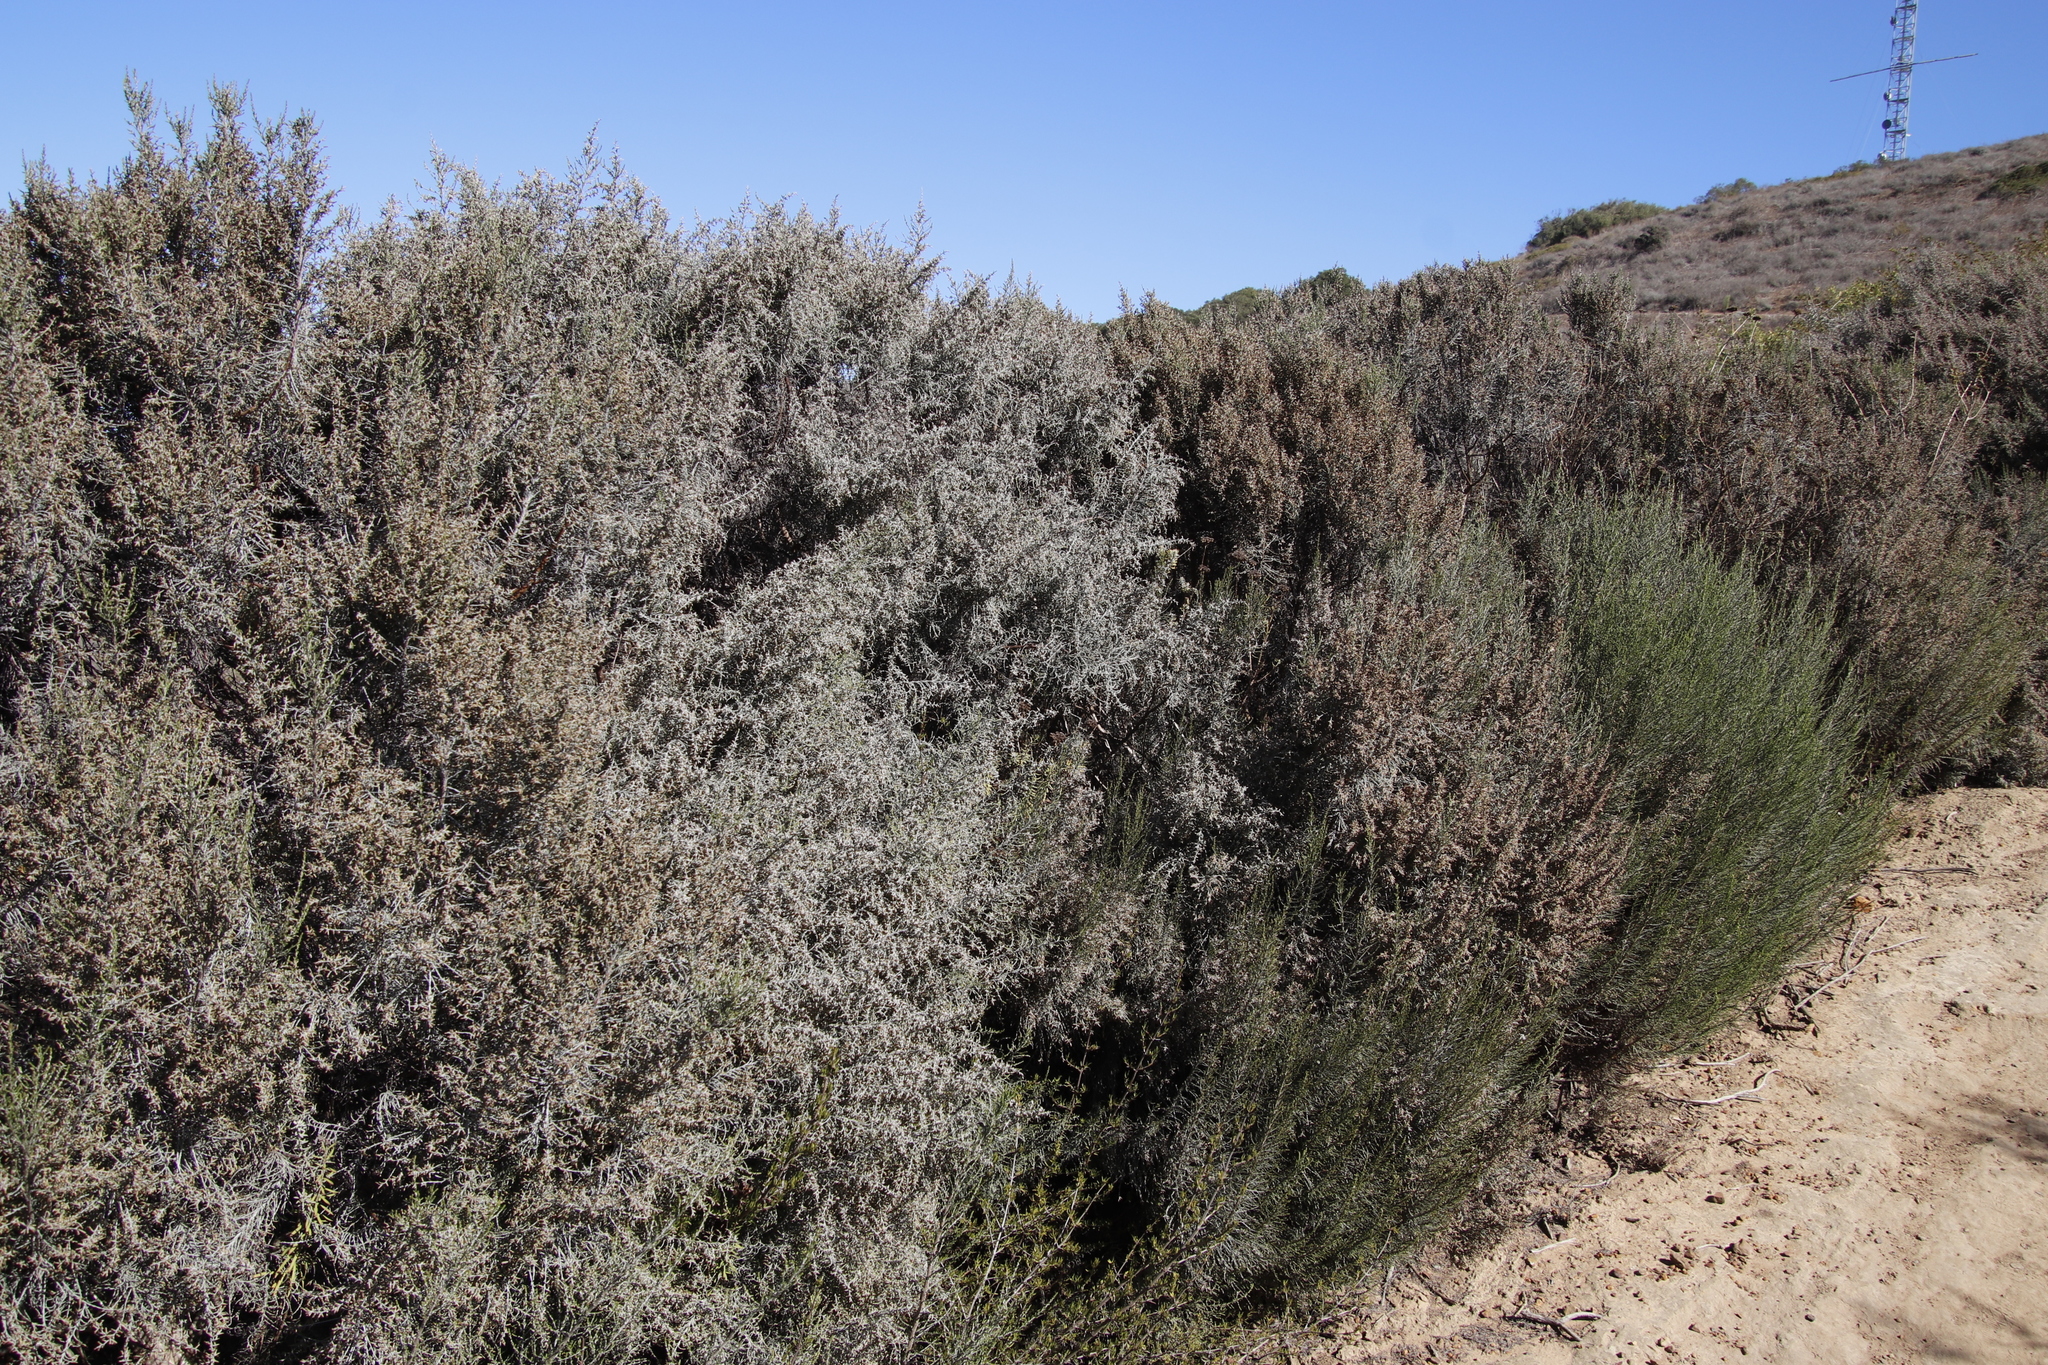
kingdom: Plantae
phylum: Tracheophyta
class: Magnoliopsida
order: Asterales
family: Asteraceae
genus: Dicerothamnus
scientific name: Dicerothamnus rhinocerotis
